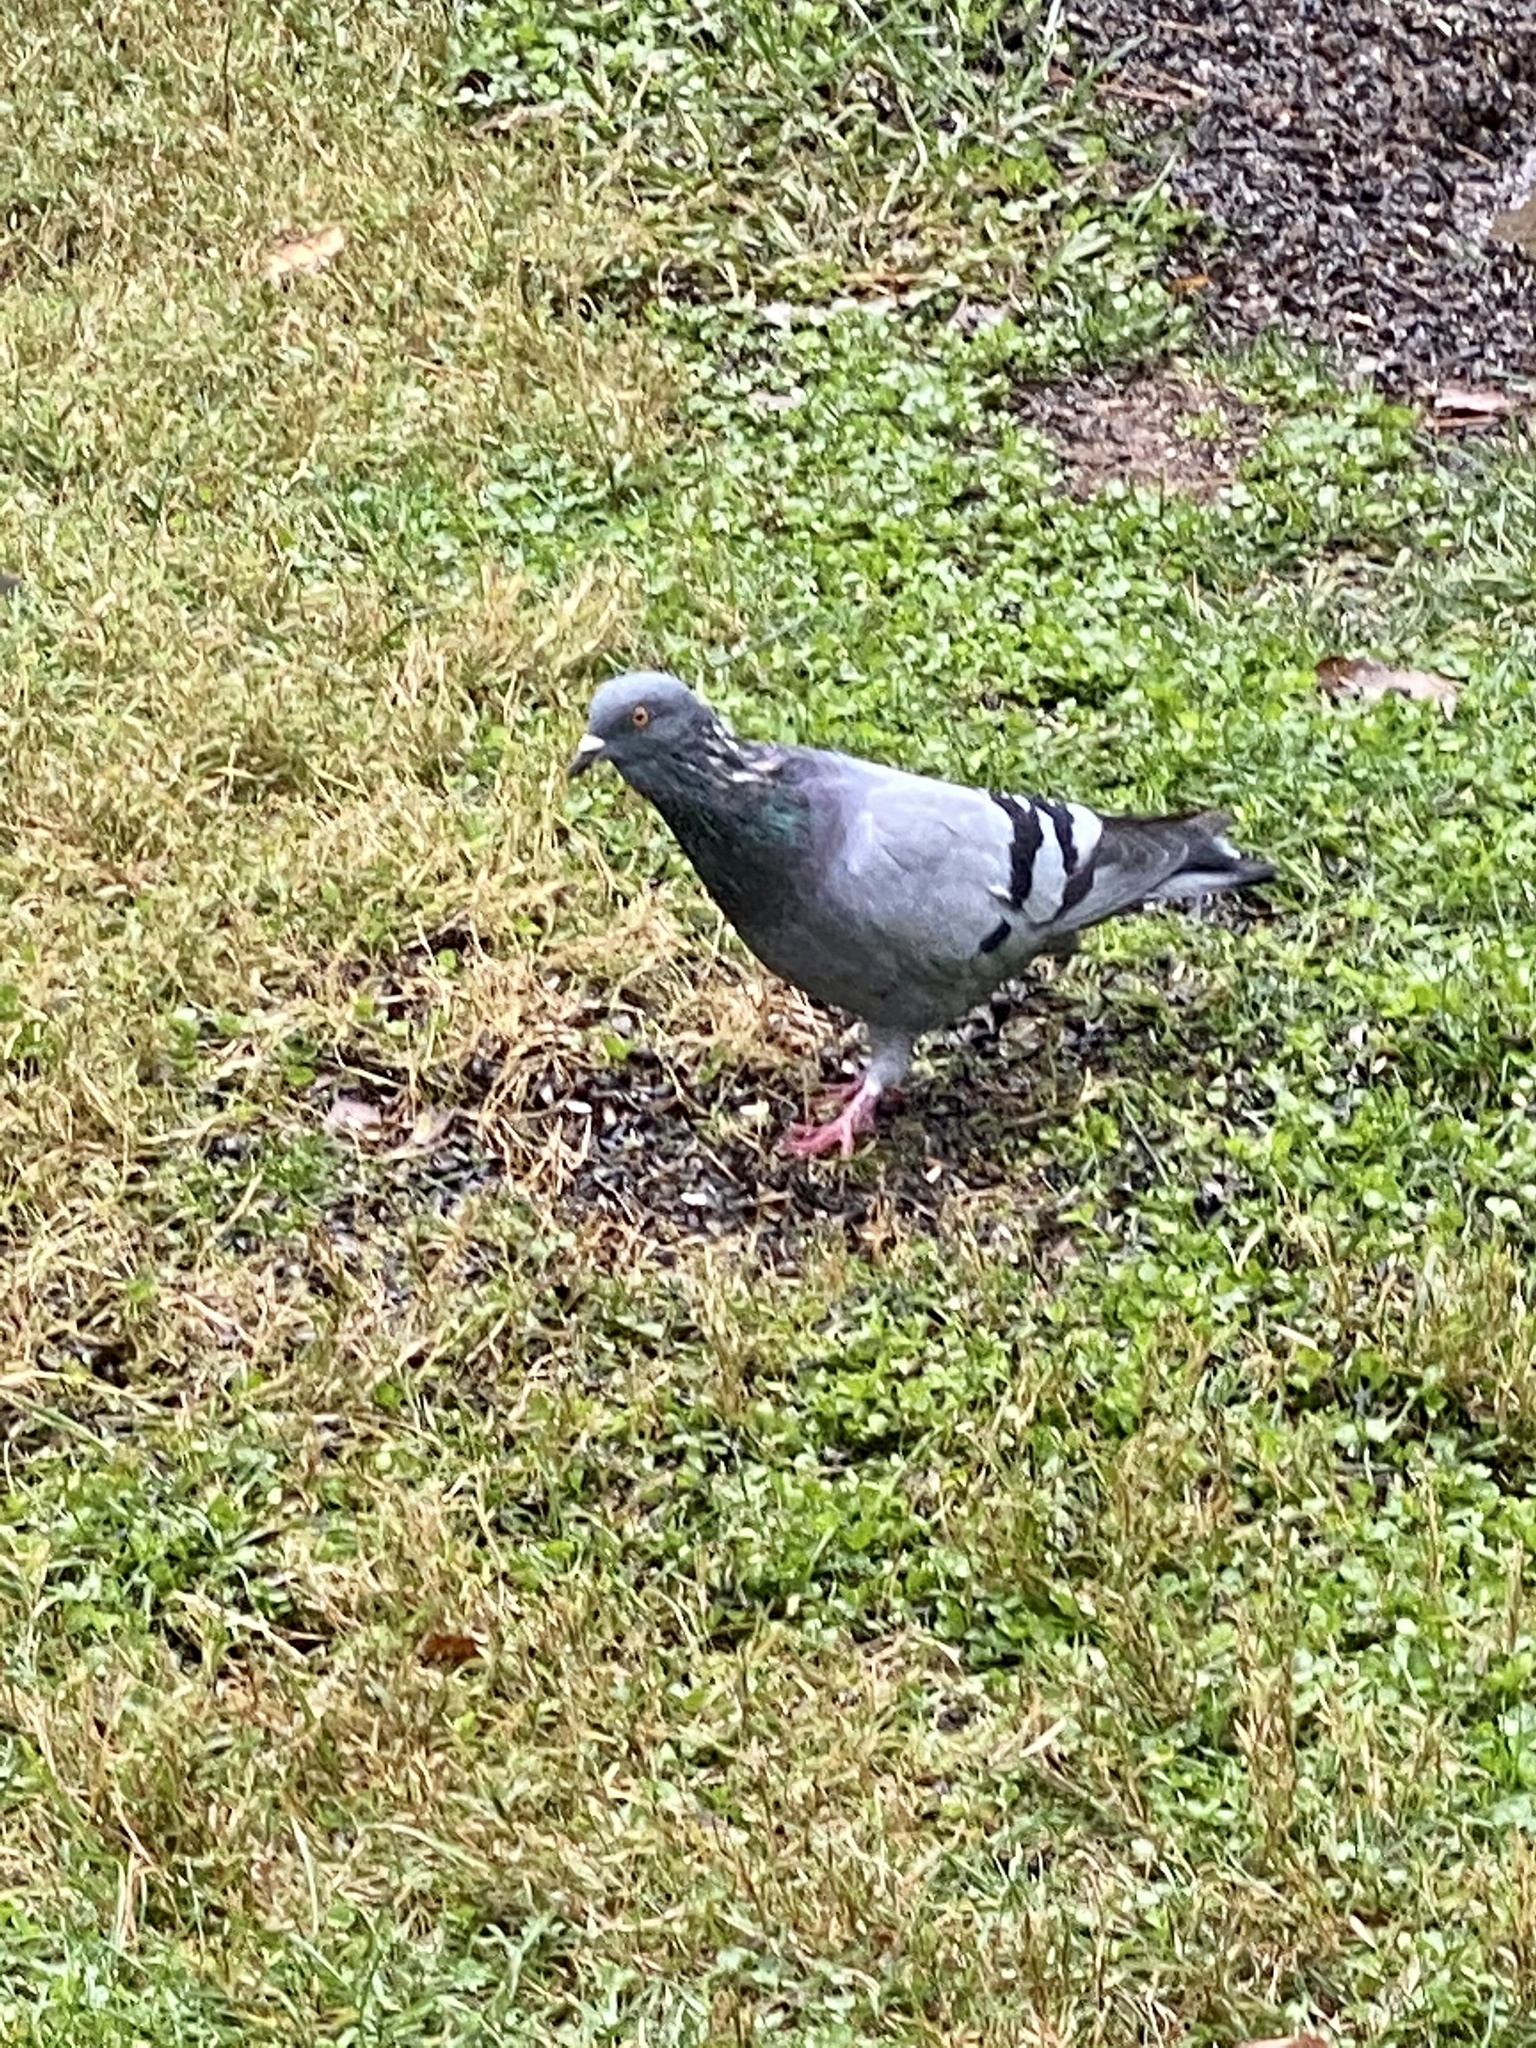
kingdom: Animalia
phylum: Chordata
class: Aves
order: Columbiformes
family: Columbidae
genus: Columba
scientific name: Columba livia
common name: Rock pigeon
